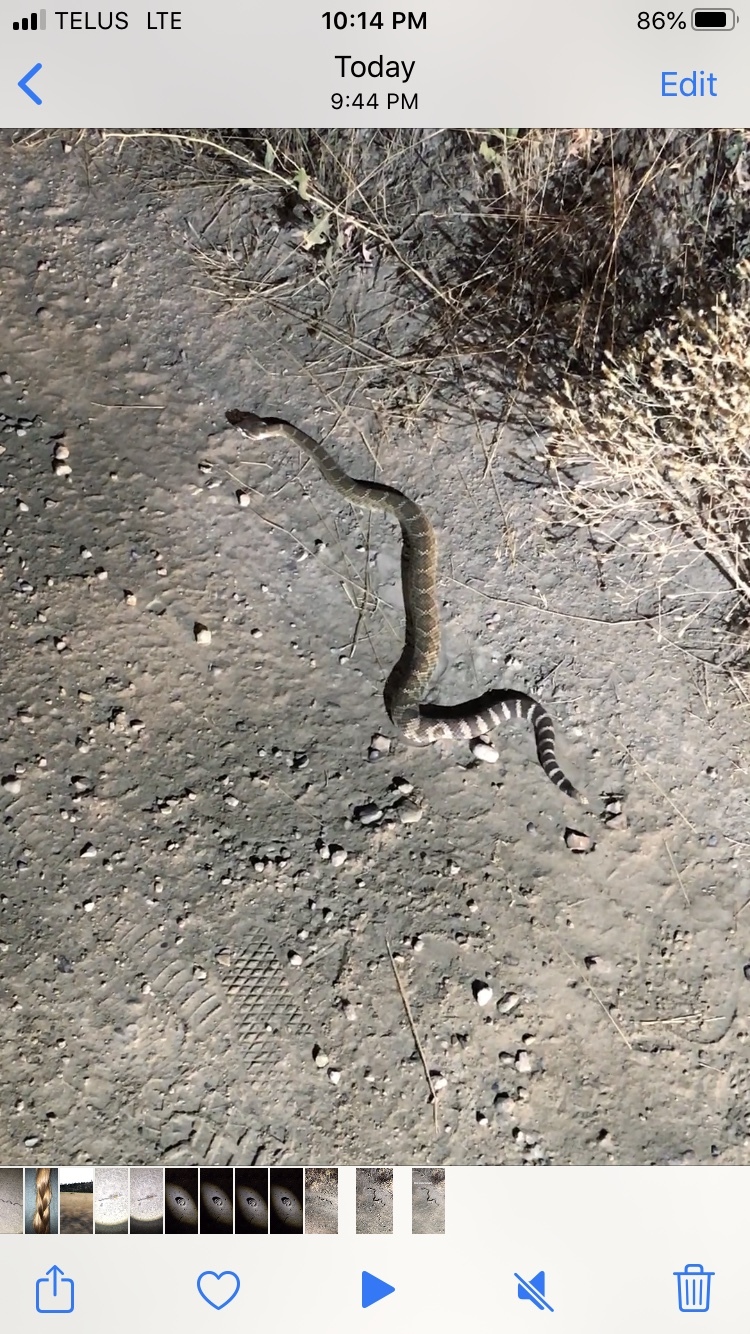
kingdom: Animalia
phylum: Chordata
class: Squamata
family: Viperidae
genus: Crotalus
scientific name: Crotalus oreganus
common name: Abyssus
